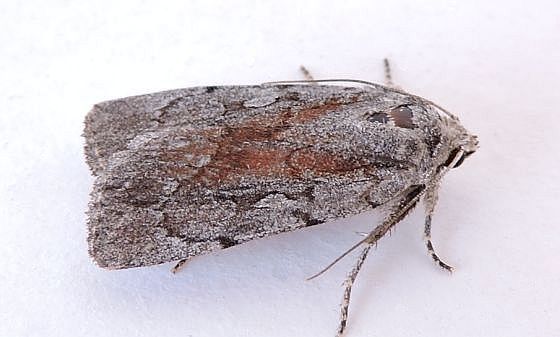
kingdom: Animalia
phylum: Arthropoda
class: Insecta
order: Lepidoptera
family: Noctuidae
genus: Setagrotis
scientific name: Setagrotis pallidicollis
